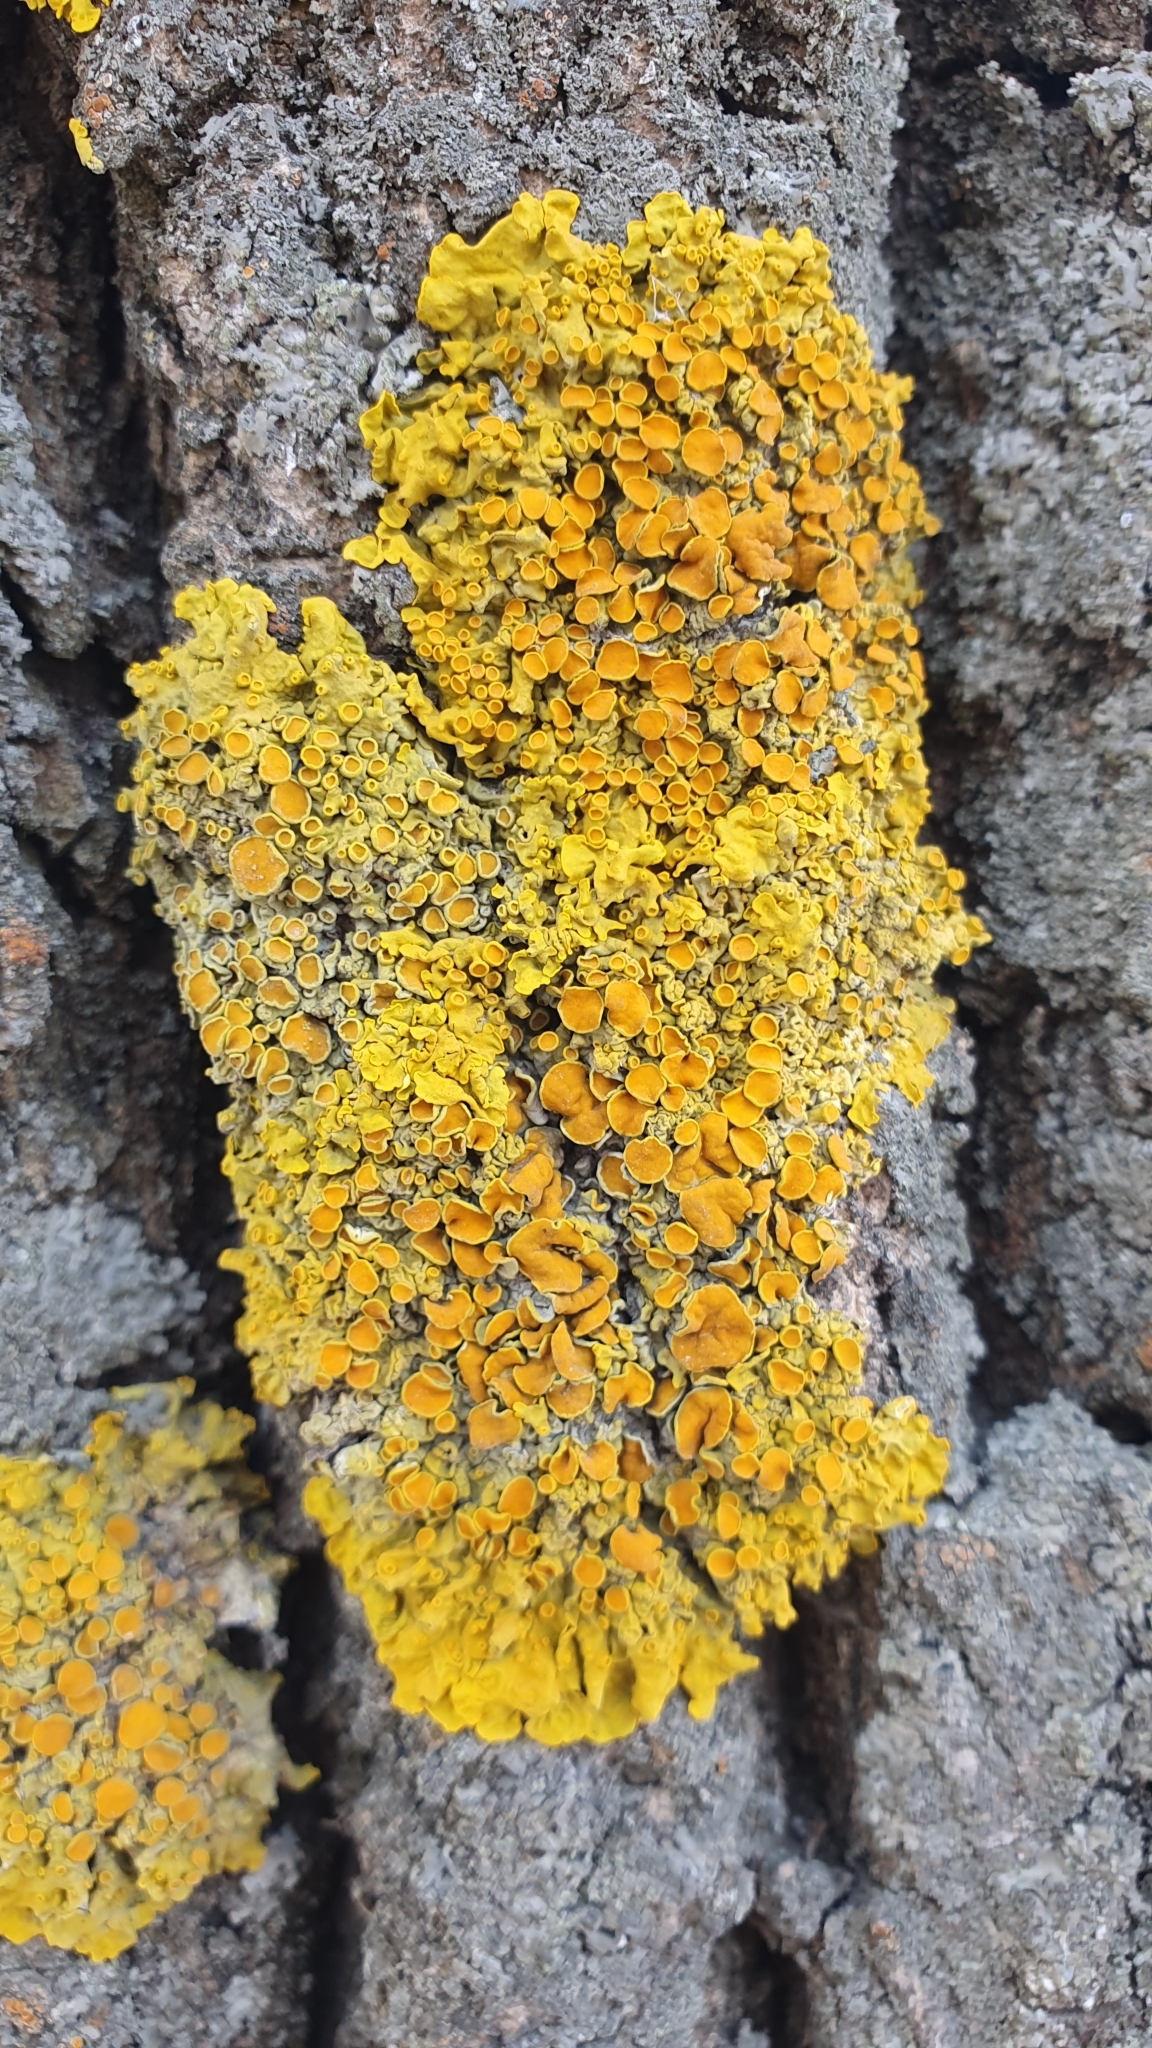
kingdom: Fungi
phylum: Ascomycota
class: Lecanoromycetes
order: Teloschistales
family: Teloschistaceae
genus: Xanthoria
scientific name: Xanthoria parietina
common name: Common orange lichen
